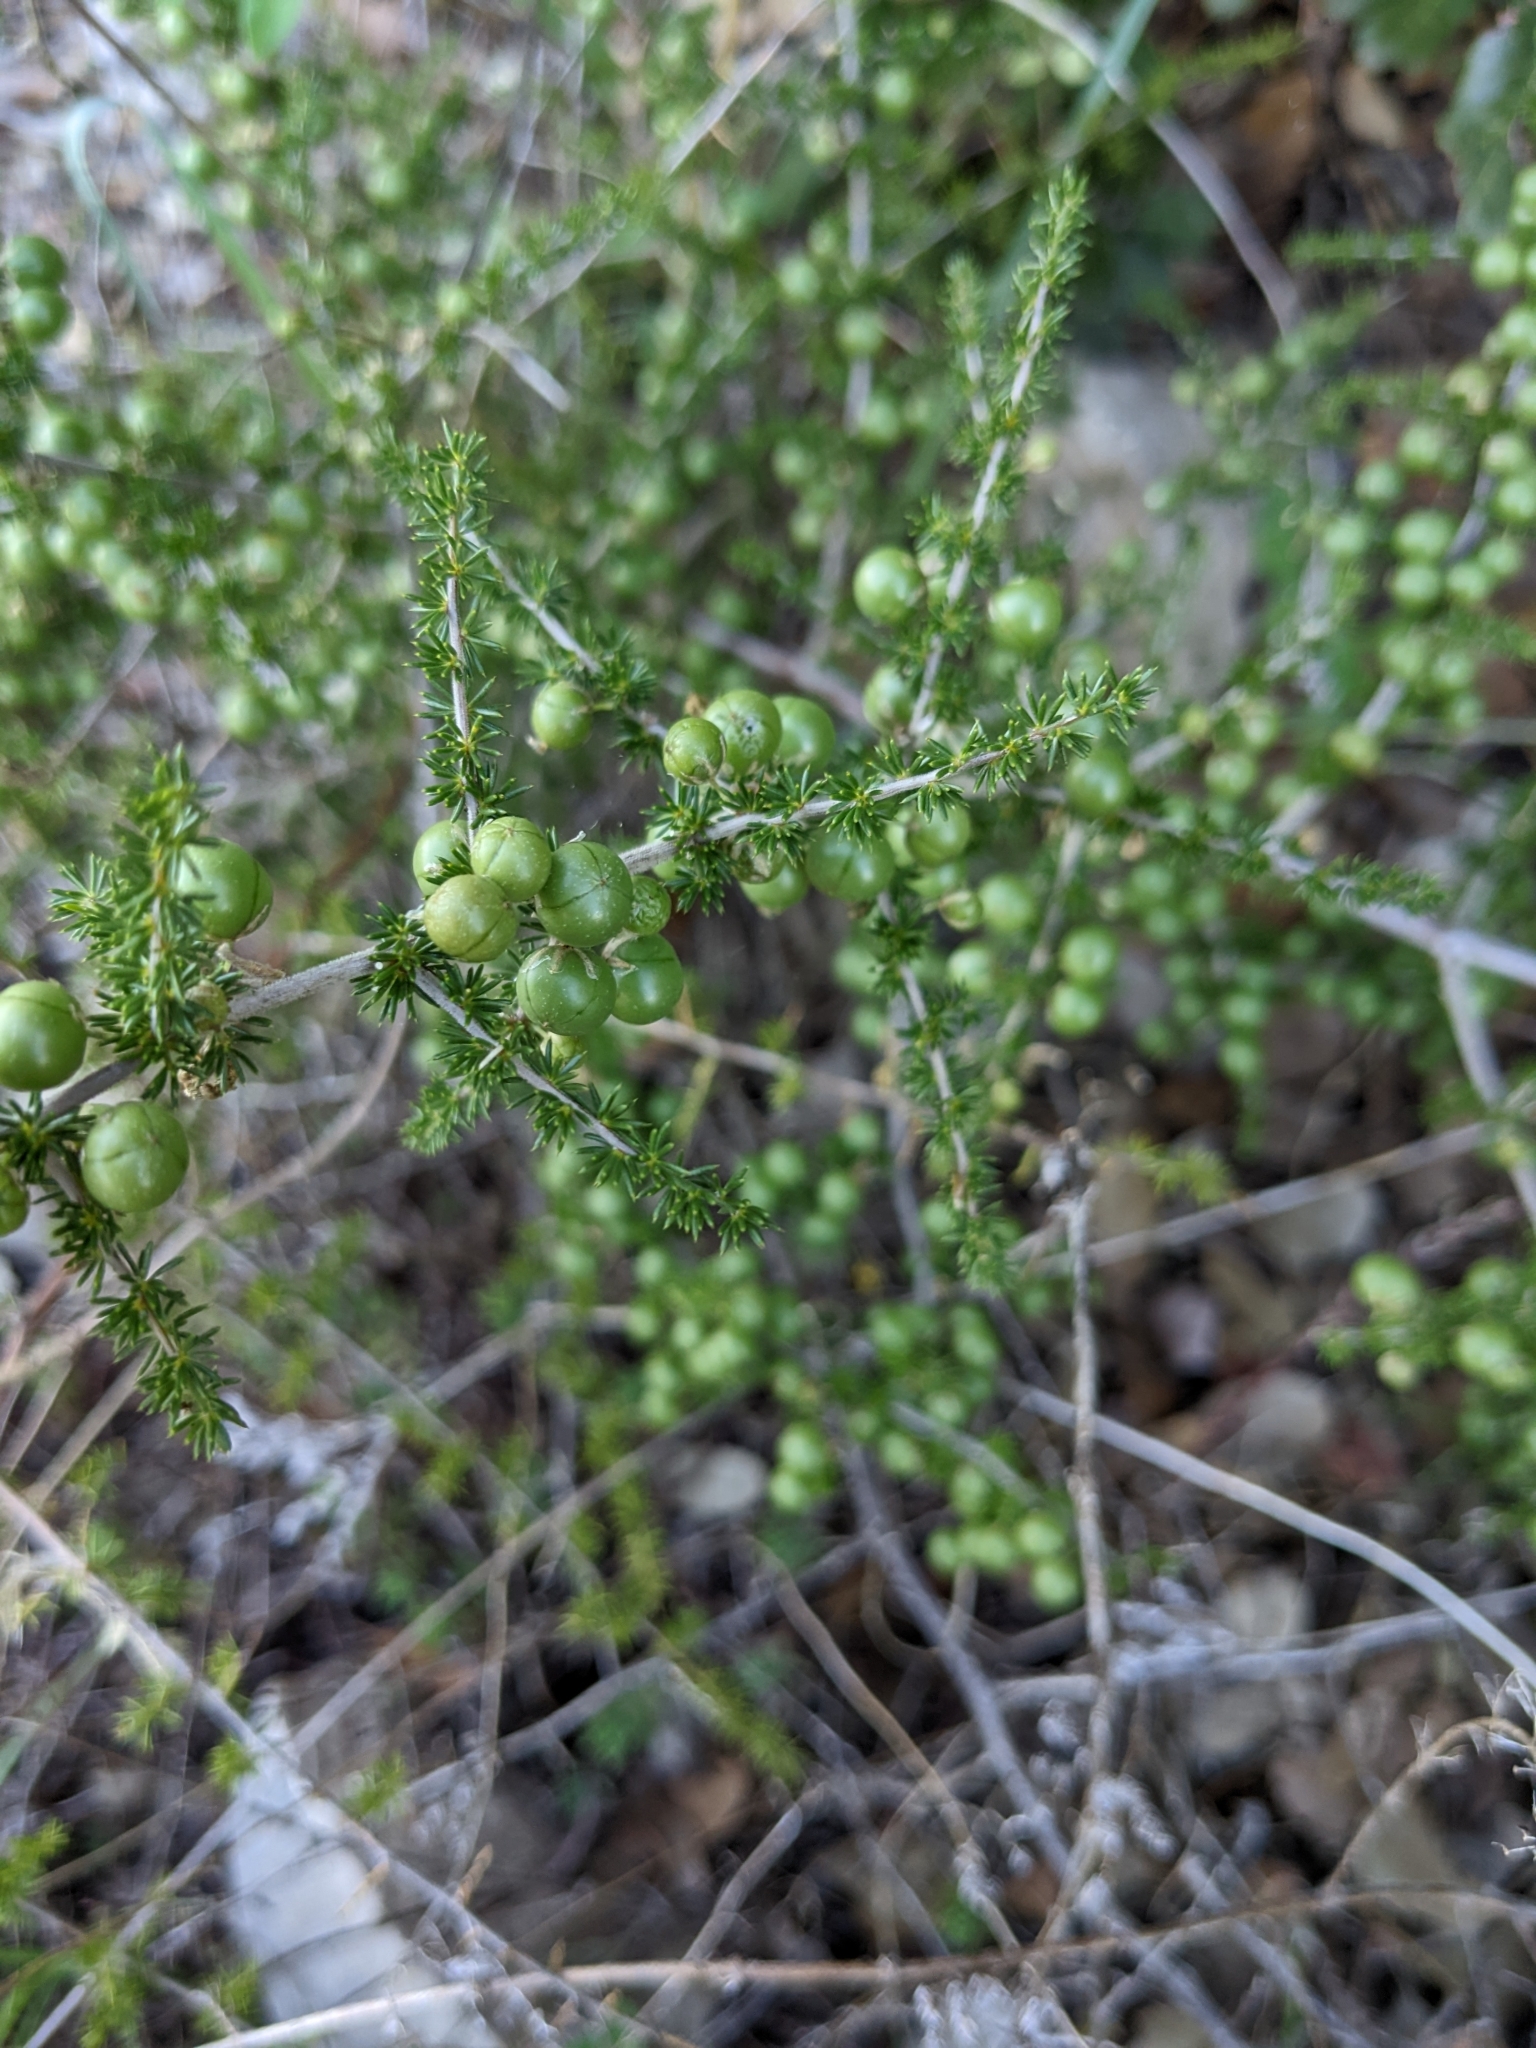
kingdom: Plantae
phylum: Tracheophyta
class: Liliopsida
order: Asparagales
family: Asparagaceae
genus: Asparagus
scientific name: Asparagus acutifolius
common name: Wild asparagus
